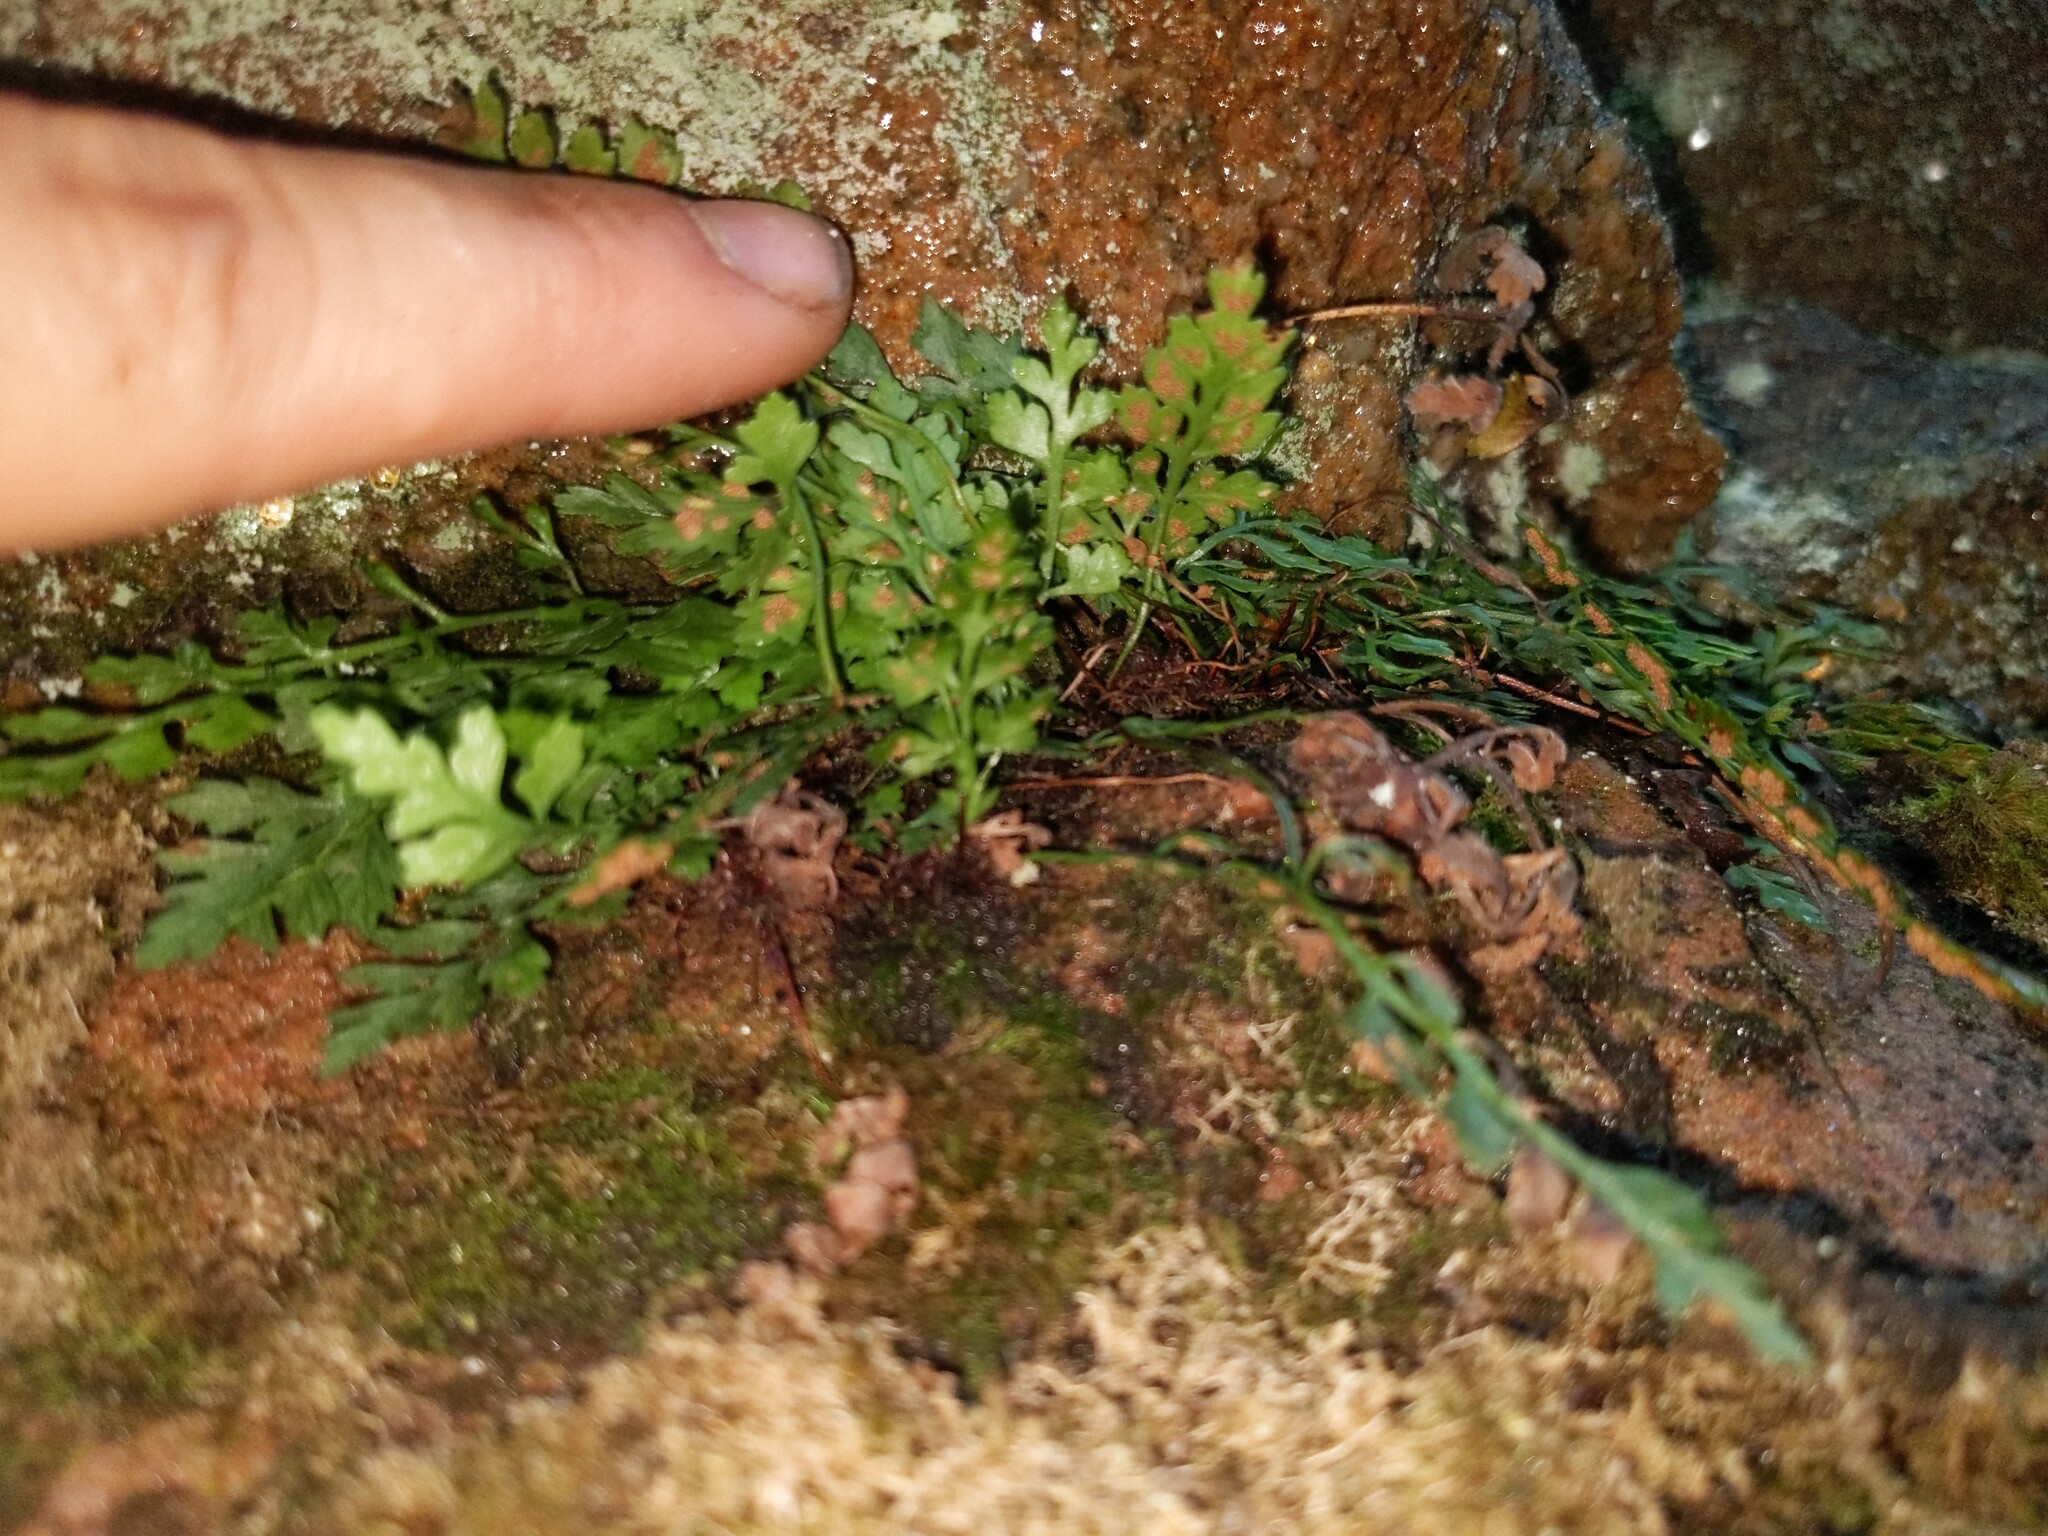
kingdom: Plantae
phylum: Tracheophyta
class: Polypodiopsida
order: Polypodiales
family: Aspleniaceae
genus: Asplenium
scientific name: Asplenium montanum
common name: Mountain spleenwort
